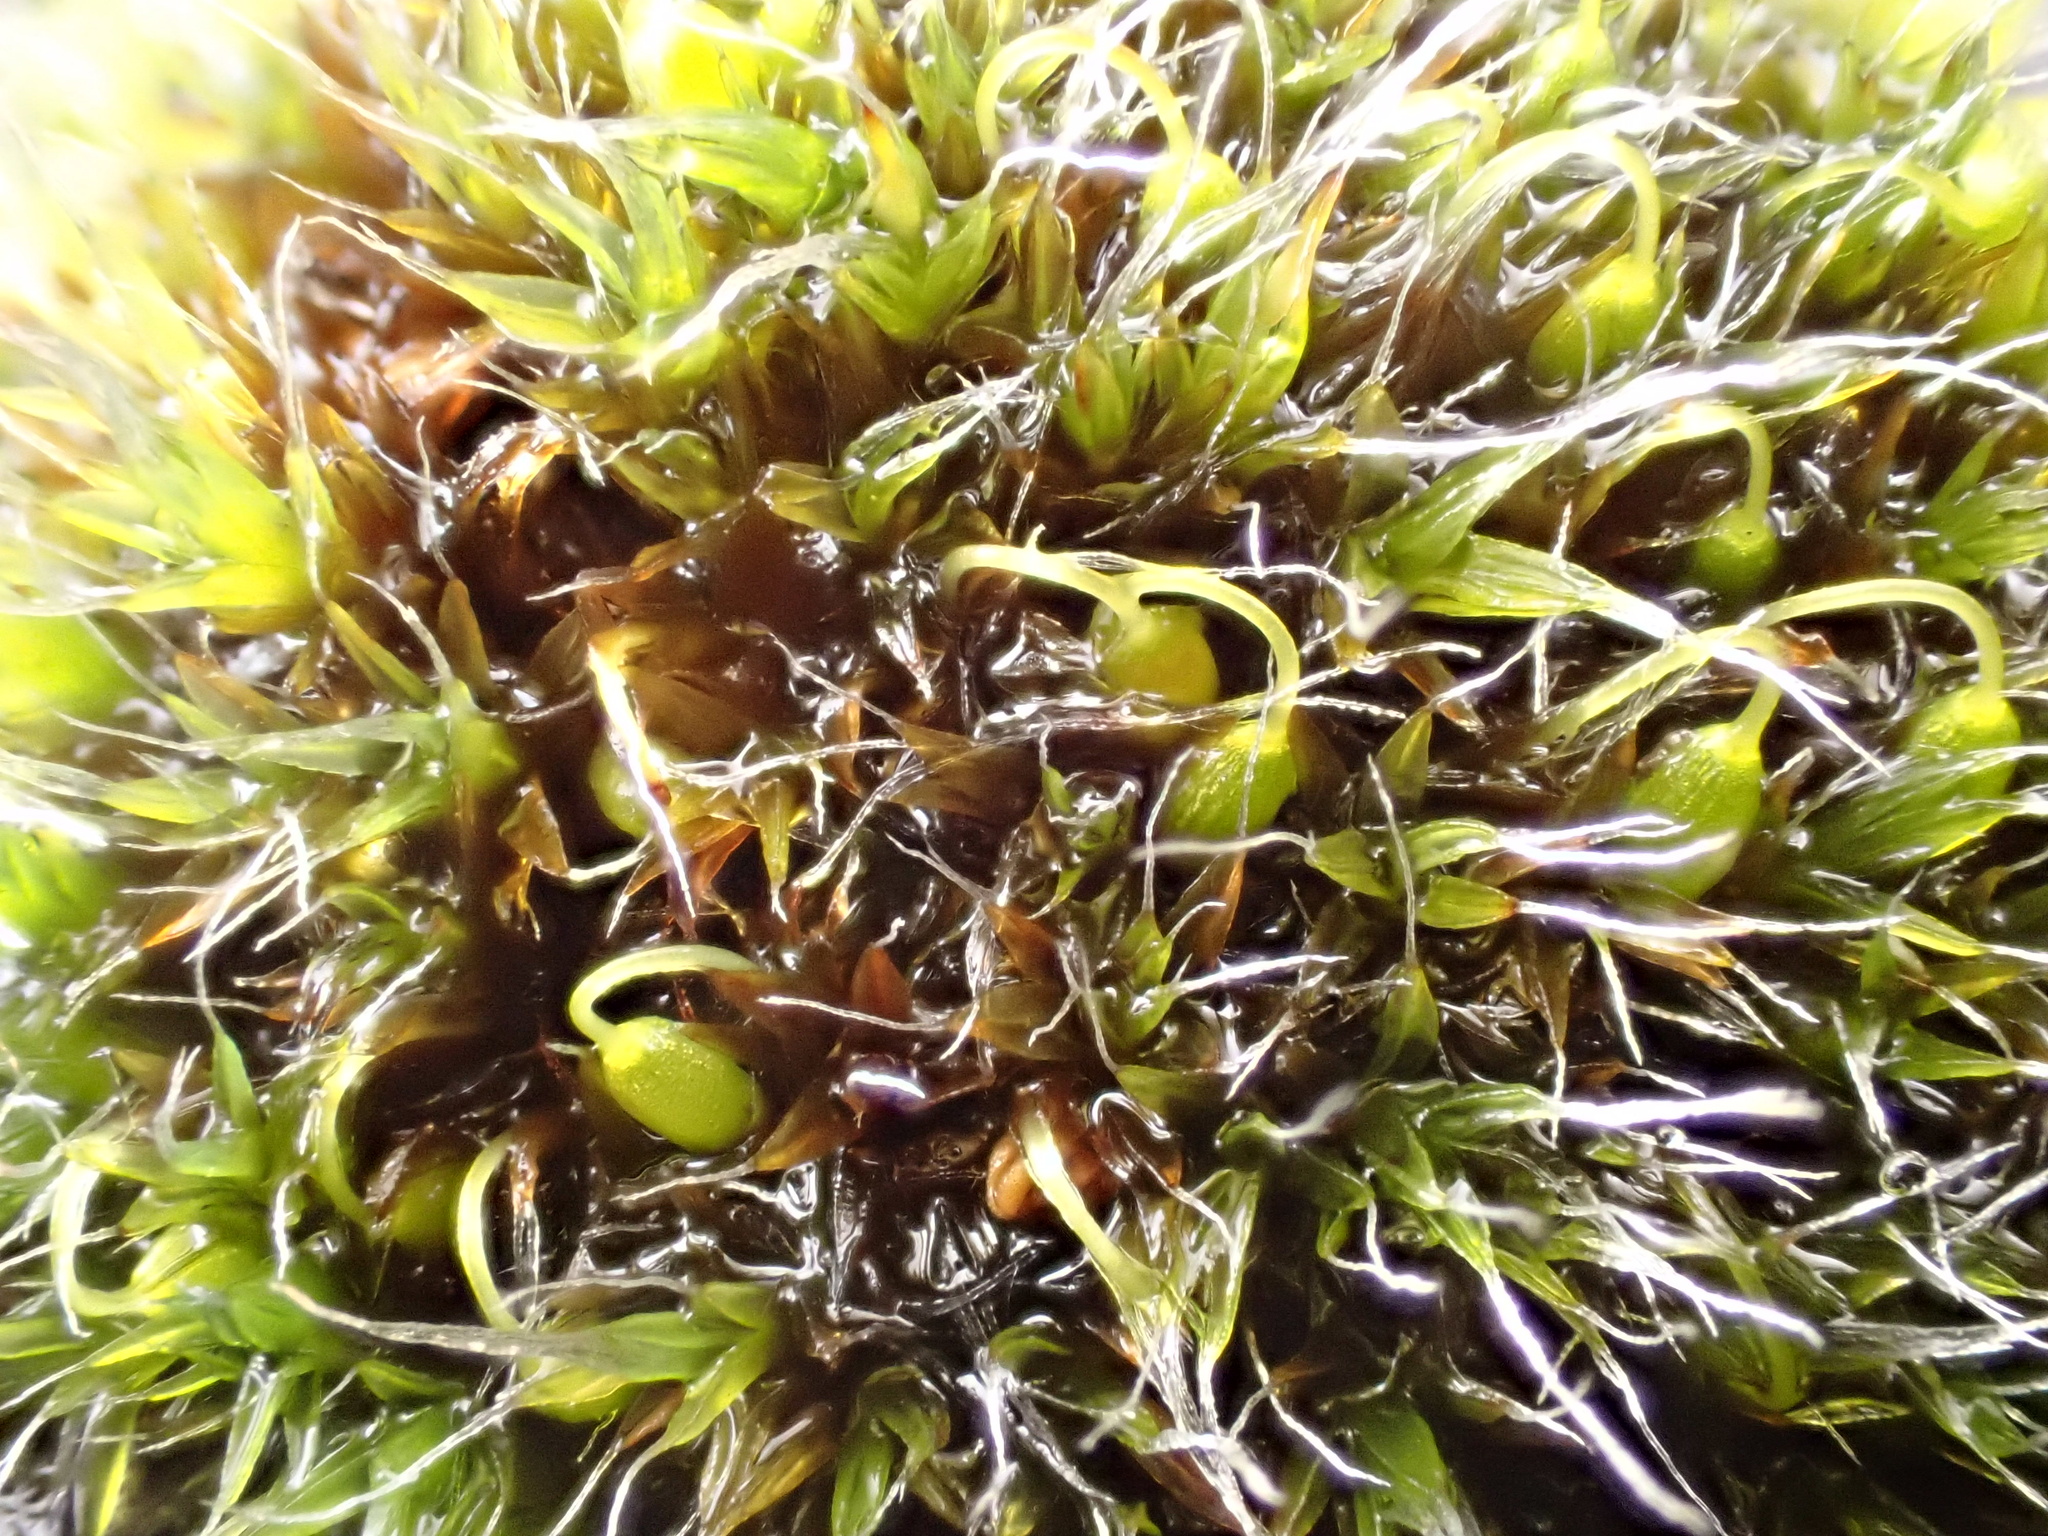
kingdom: Plantae
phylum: Bryophyta
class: Bryopsida
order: Grimmiales
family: Grimmiaceae
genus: Grimmia
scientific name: Grimmia pulvinata
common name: Grey-cushioned grimmia
